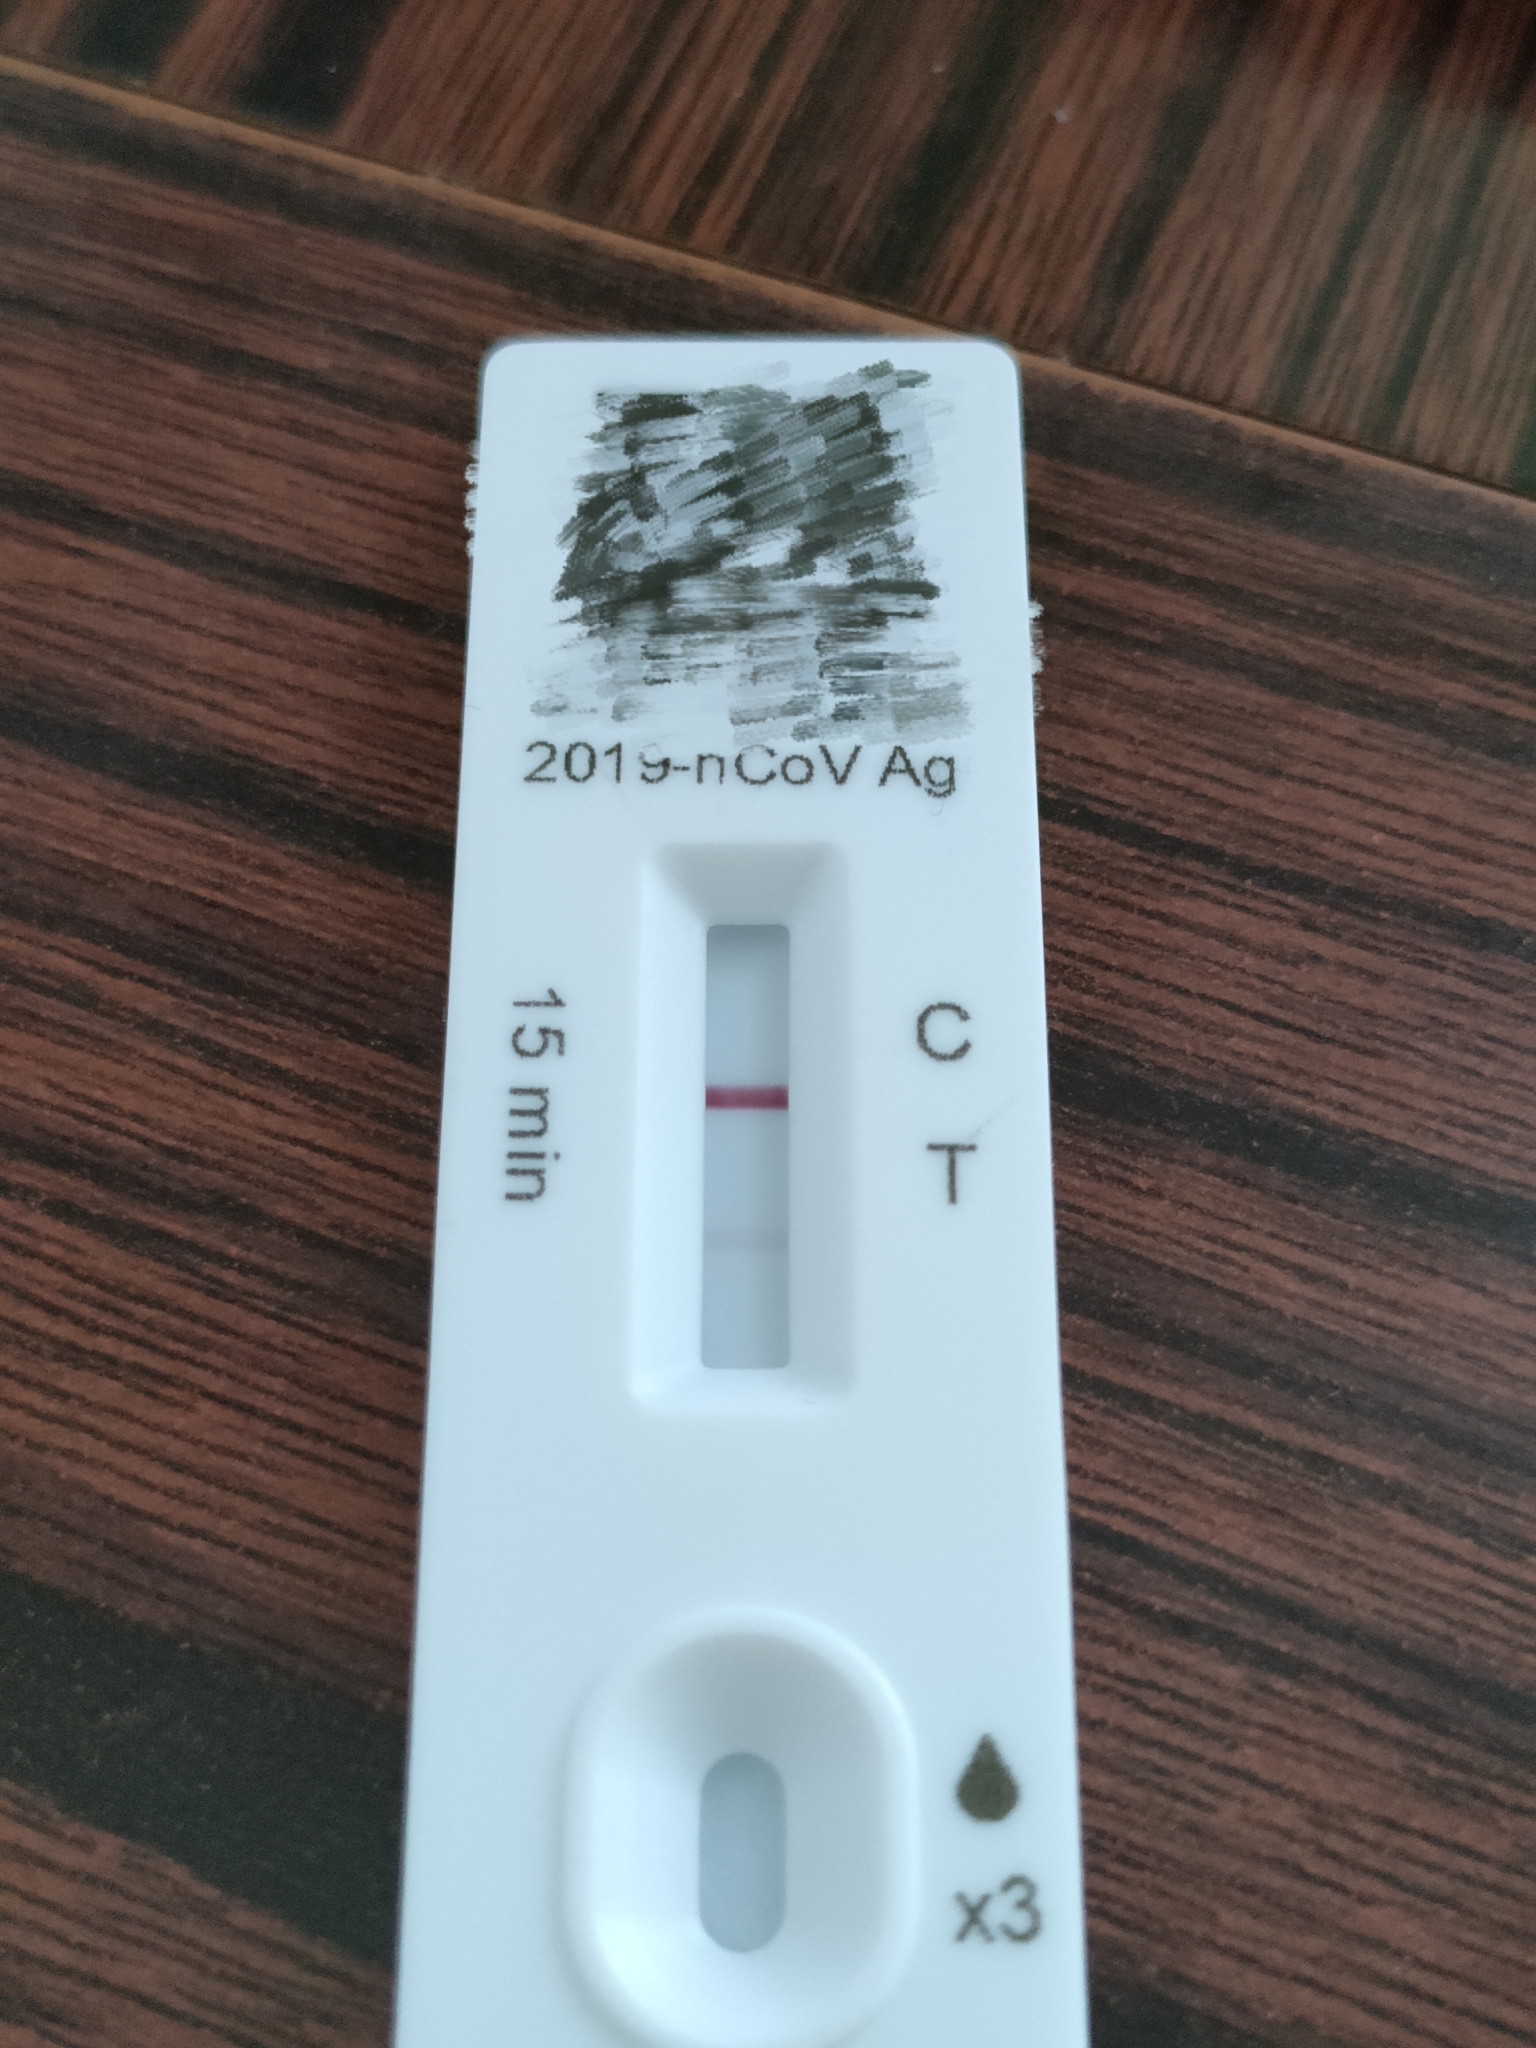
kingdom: Viruses
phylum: Pisuviricota
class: Pisoniviricetes
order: Nidovirales
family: Coronaviridae
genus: Betacoronavirus
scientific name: Betacoronavirus
